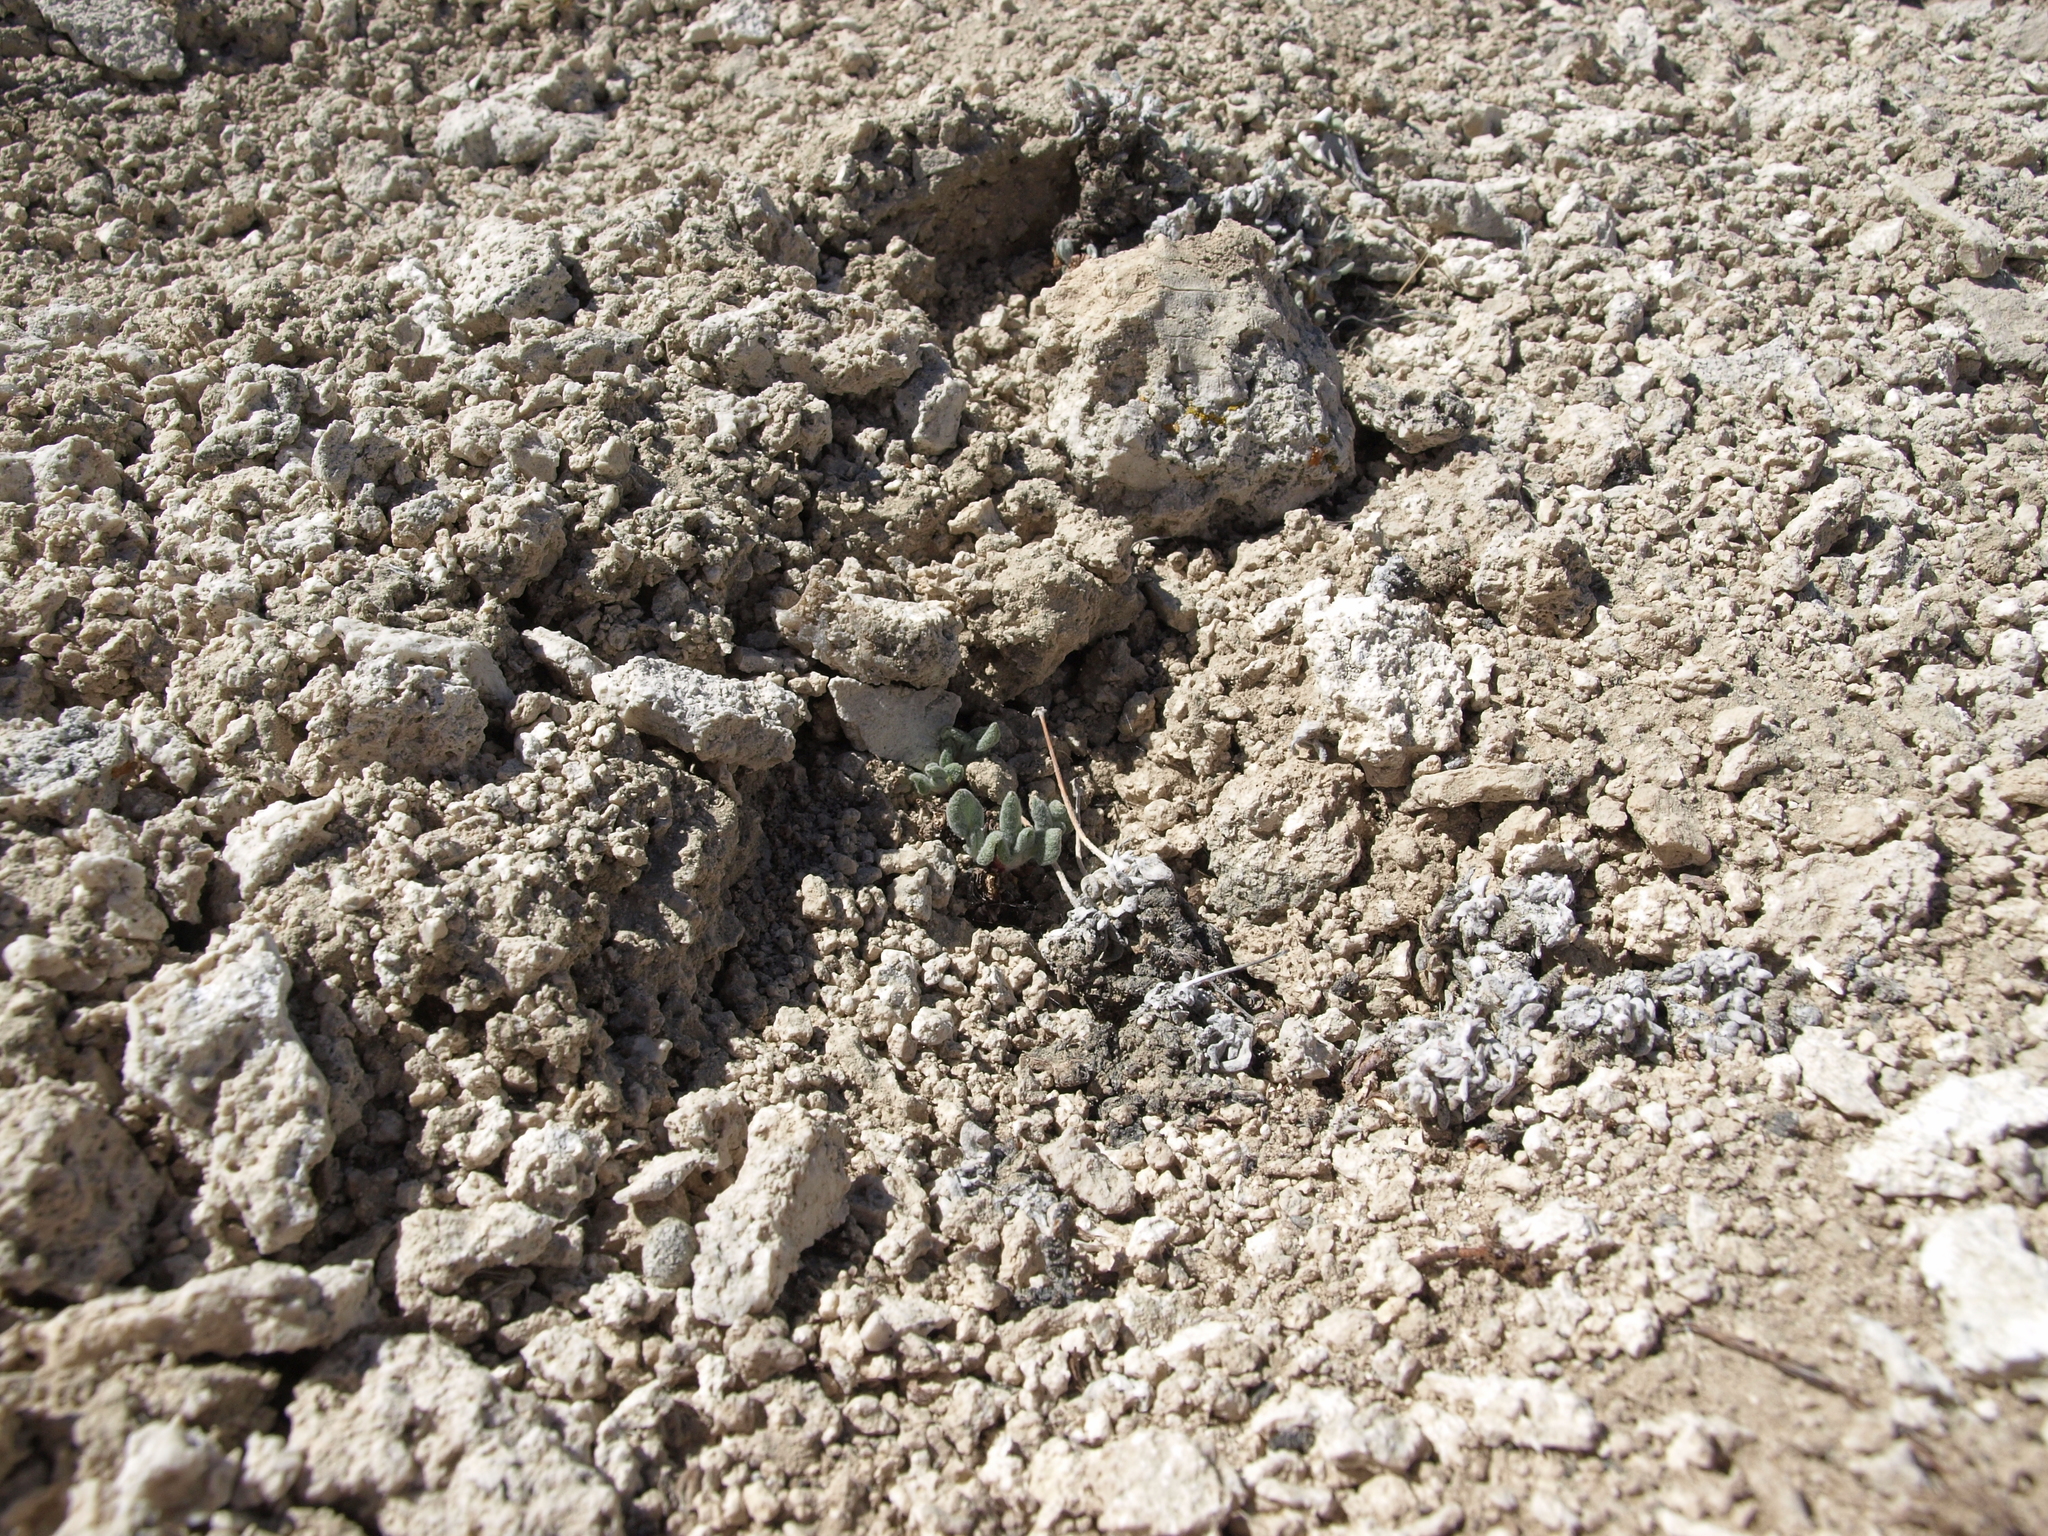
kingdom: Plantae
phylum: Tracheophyta
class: Magnoliopsida
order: Caryophyllales
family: Polygonaceae
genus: Eriogonum
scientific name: Eriogonum tiehmii
